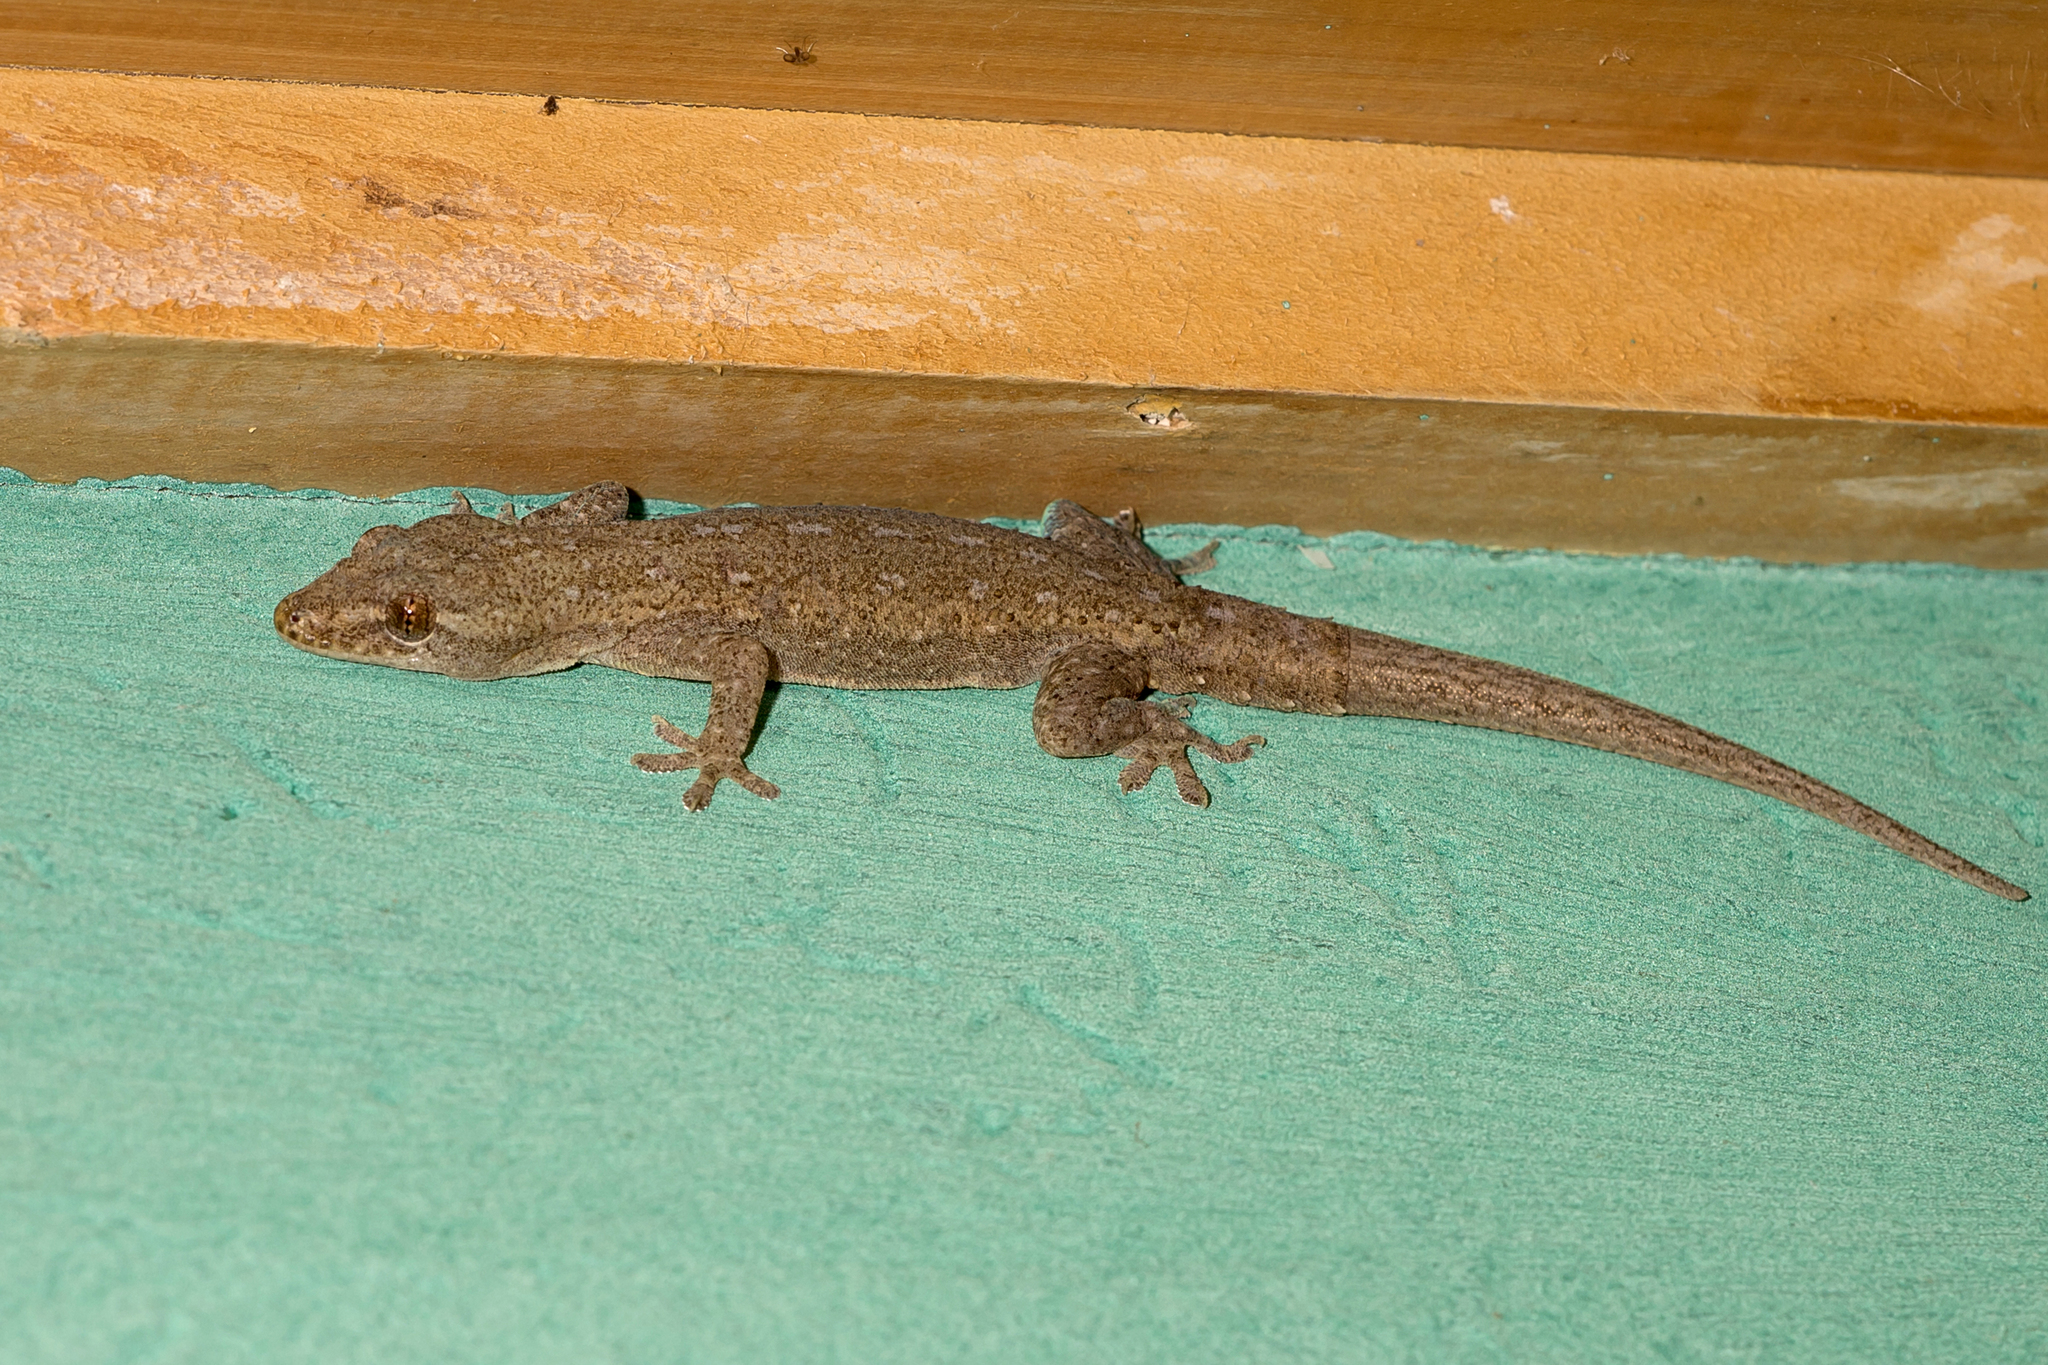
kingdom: Animalia
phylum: Chordata
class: Squamata
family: Gekkonidae
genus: Hemidactylus
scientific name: Hemidactylus frenatus
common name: Common house gecko
